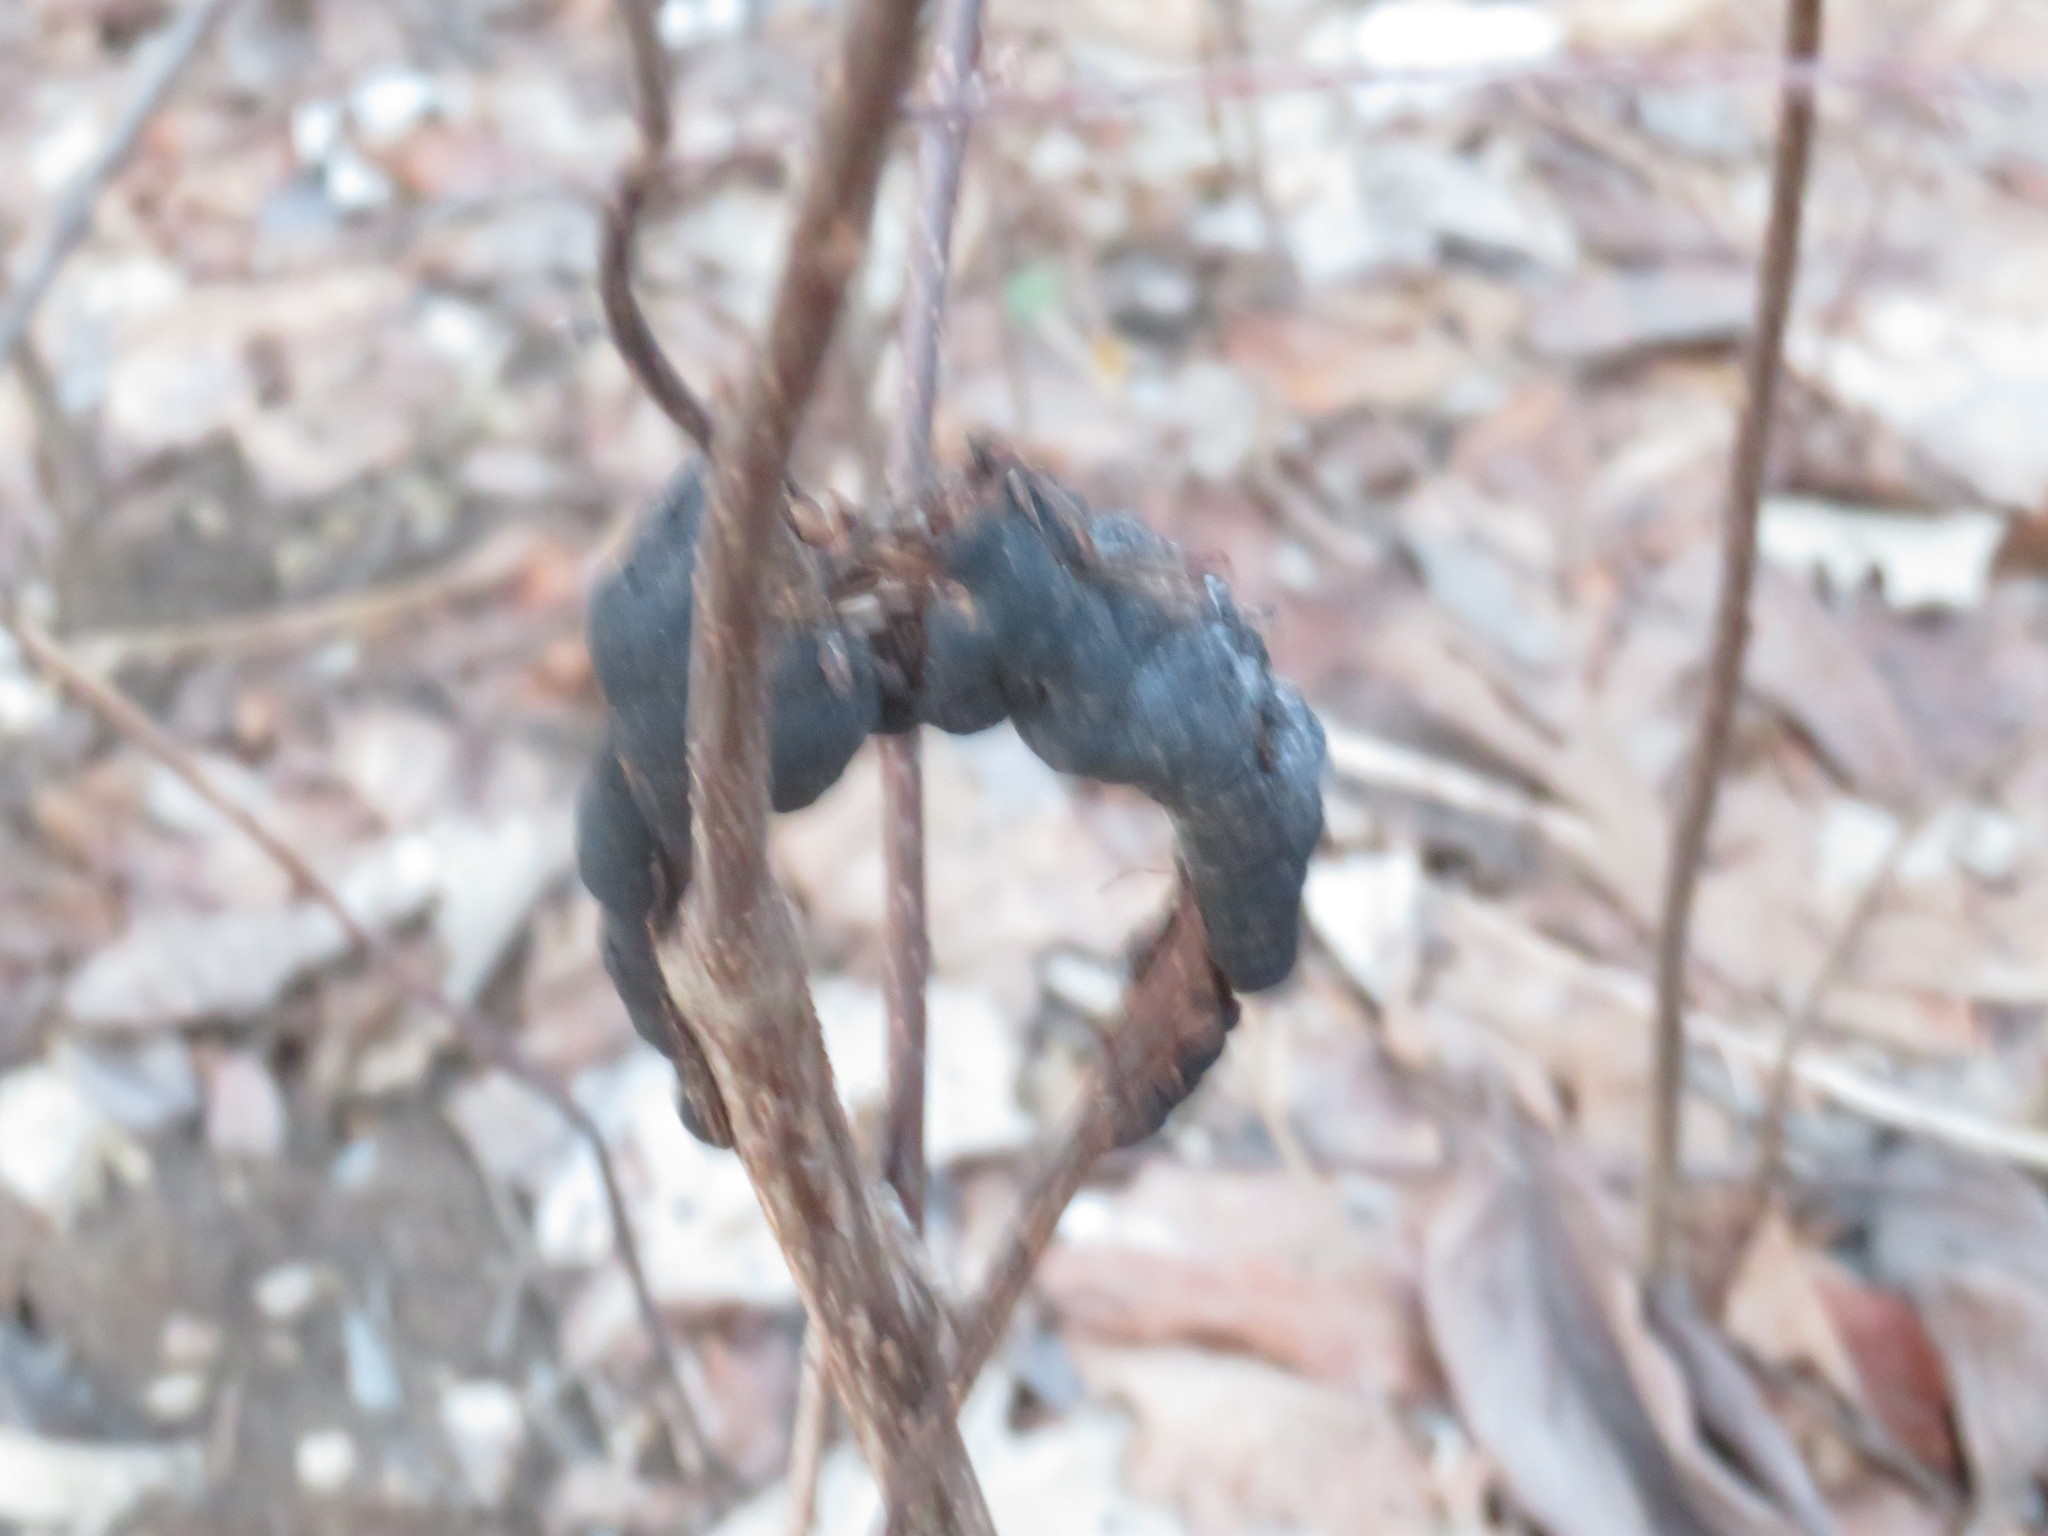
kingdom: Fungi
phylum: Ascomycota
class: Dothideomycetes
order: Venturiales
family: Venturiaceae
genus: Apiosporina
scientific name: Apiosporina morbosa
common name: Black knot
